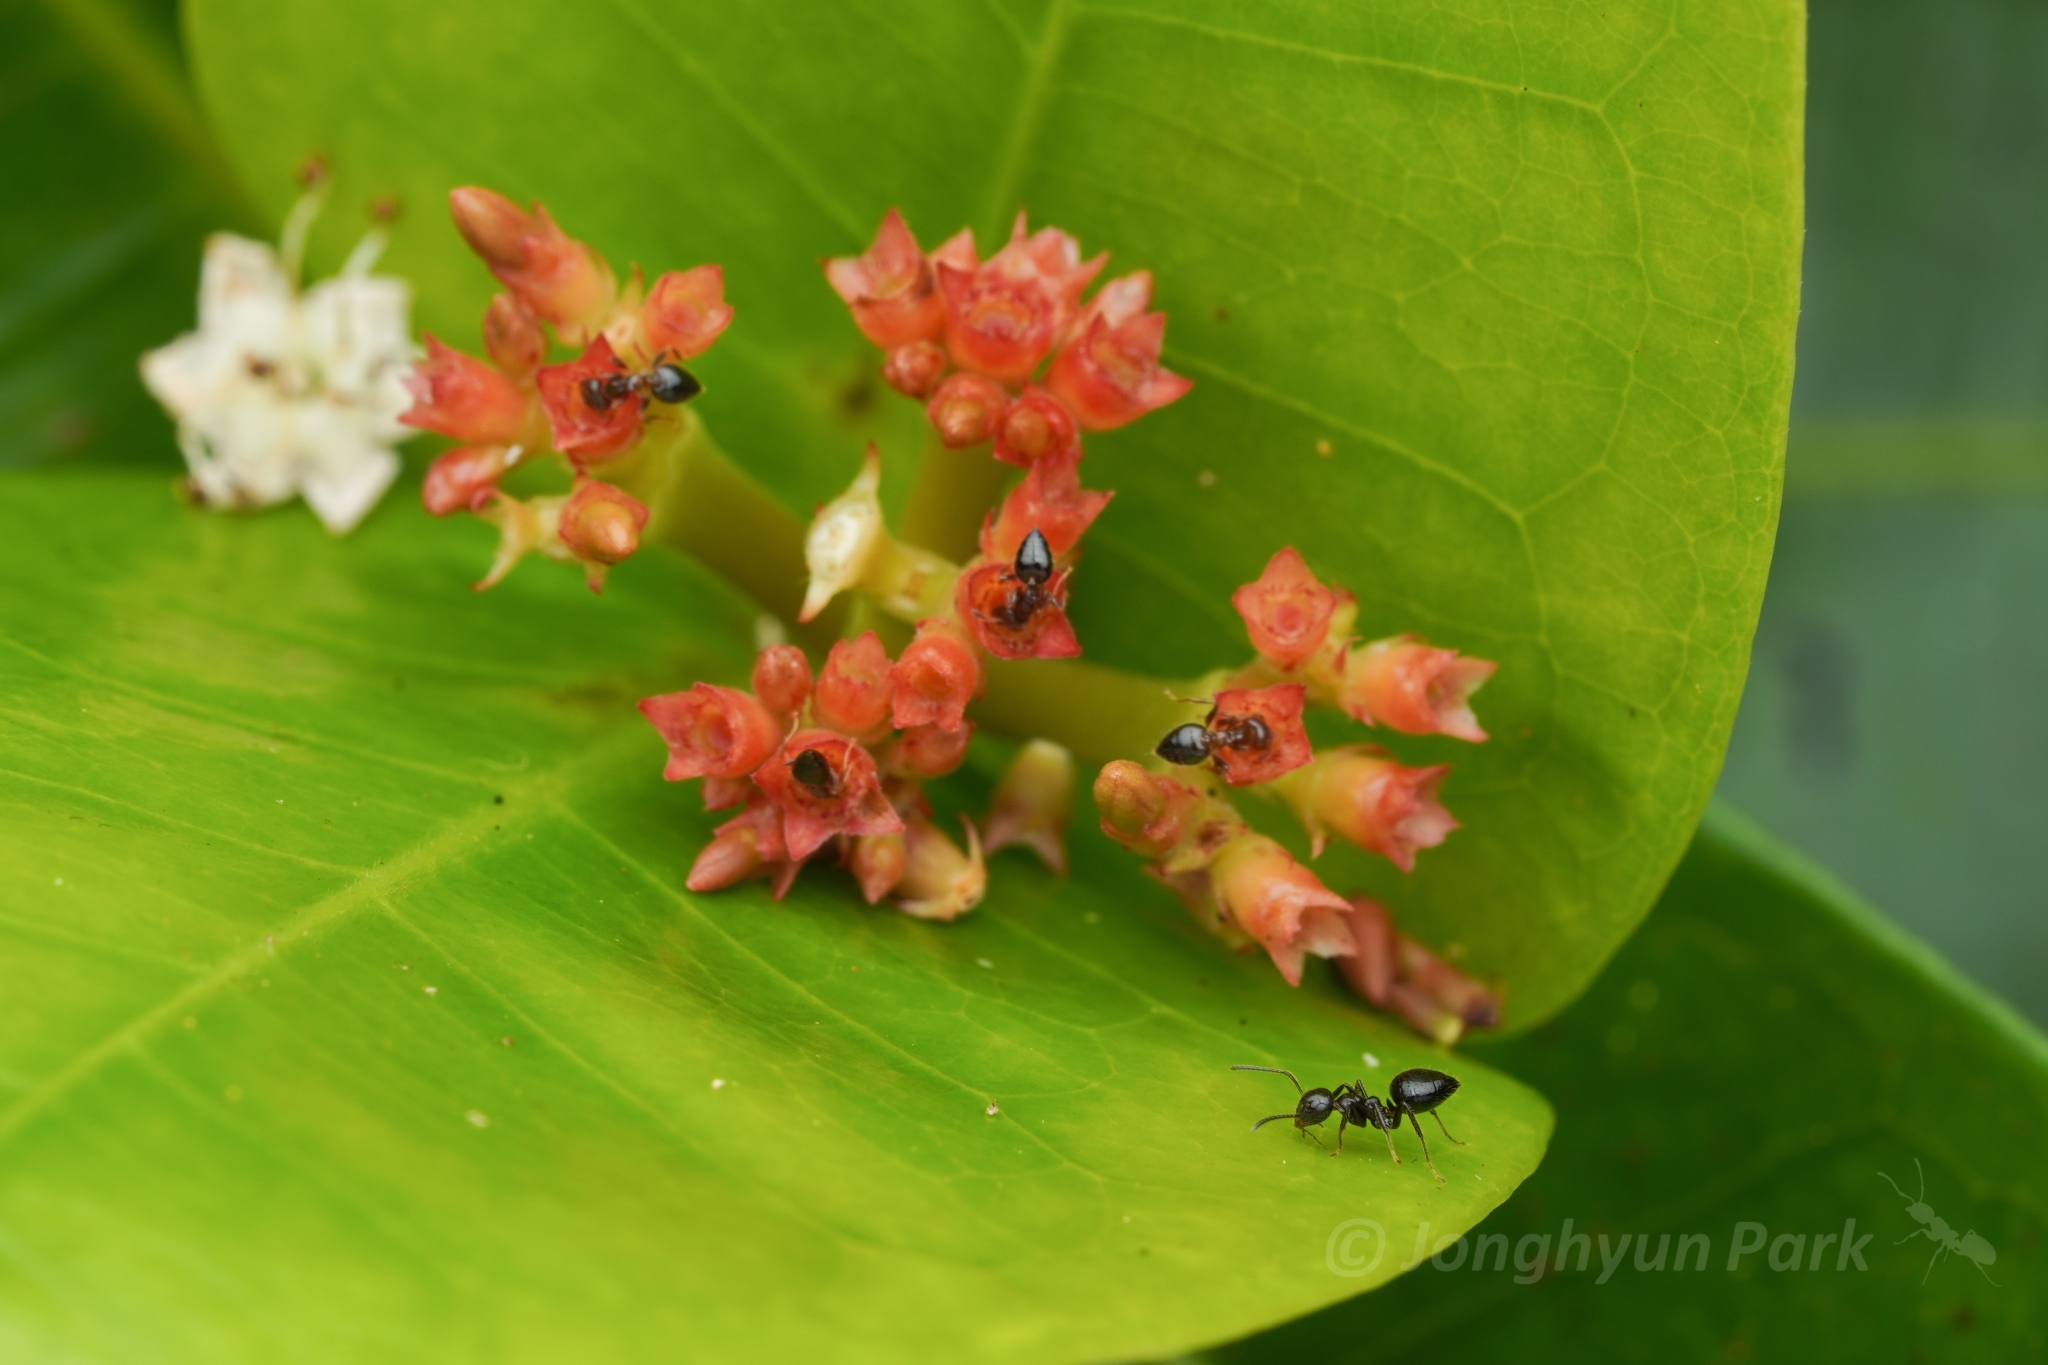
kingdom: Animalia
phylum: Arthropoda
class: Insecta
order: Hymenoptera
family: Formicidae
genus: Camponotus
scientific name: Camponotus vitreus
